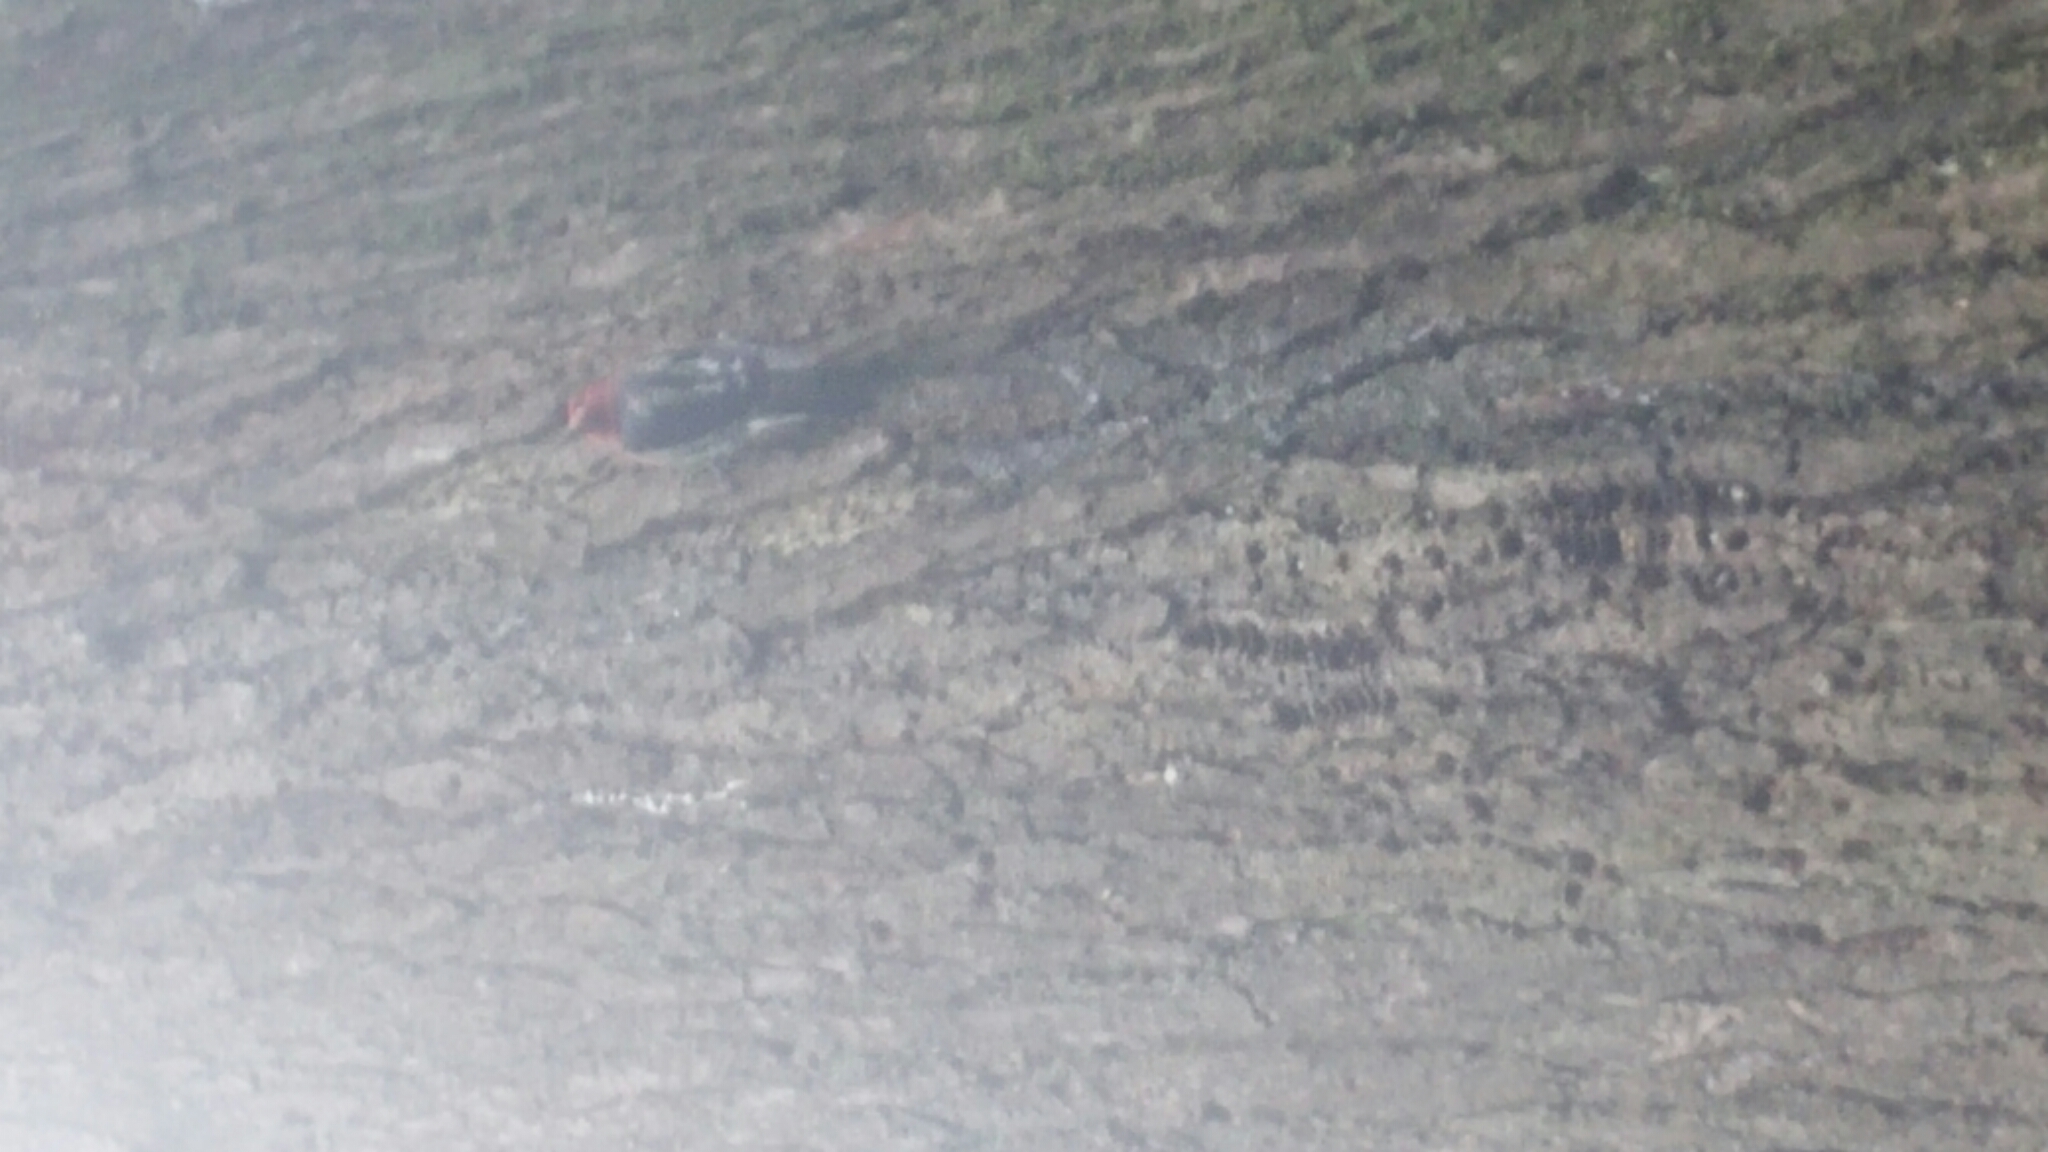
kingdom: Animalia
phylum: Chordata
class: Aves
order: Piciformes
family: Picidae
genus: Sphyrapicus
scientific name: Sphyrapicus ruber
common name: Red-breasted sapsucker
